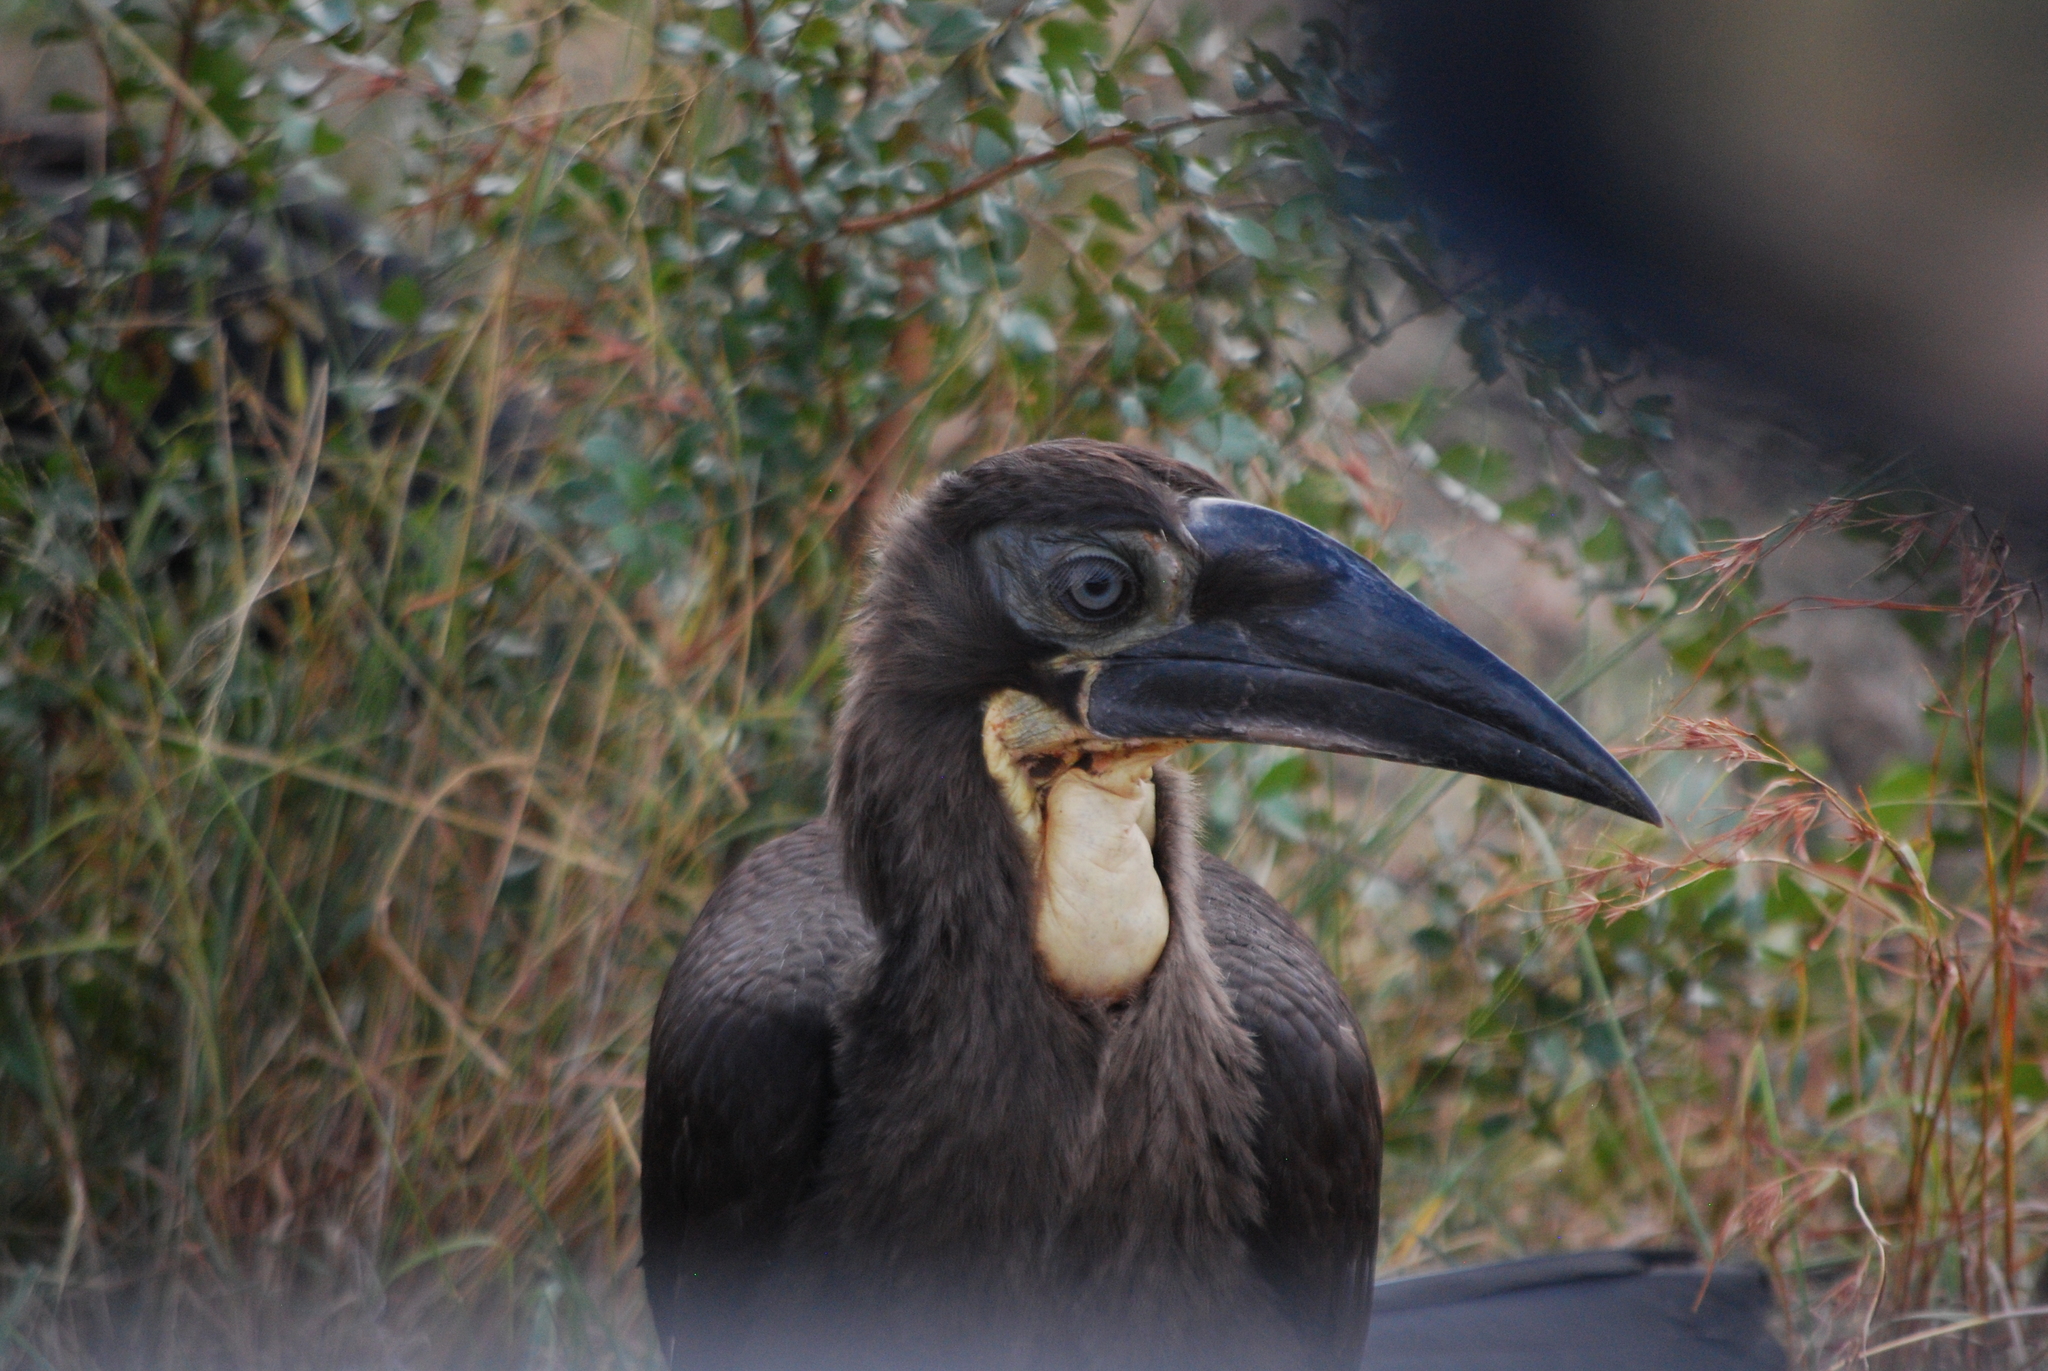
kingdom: Animalia
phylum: Chordata
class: Aves
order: Bucerotiformes
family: Bucorvidae
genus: Bucorvus
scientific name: Bucorvus leadbeateri
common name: Southern ground-hornbill
